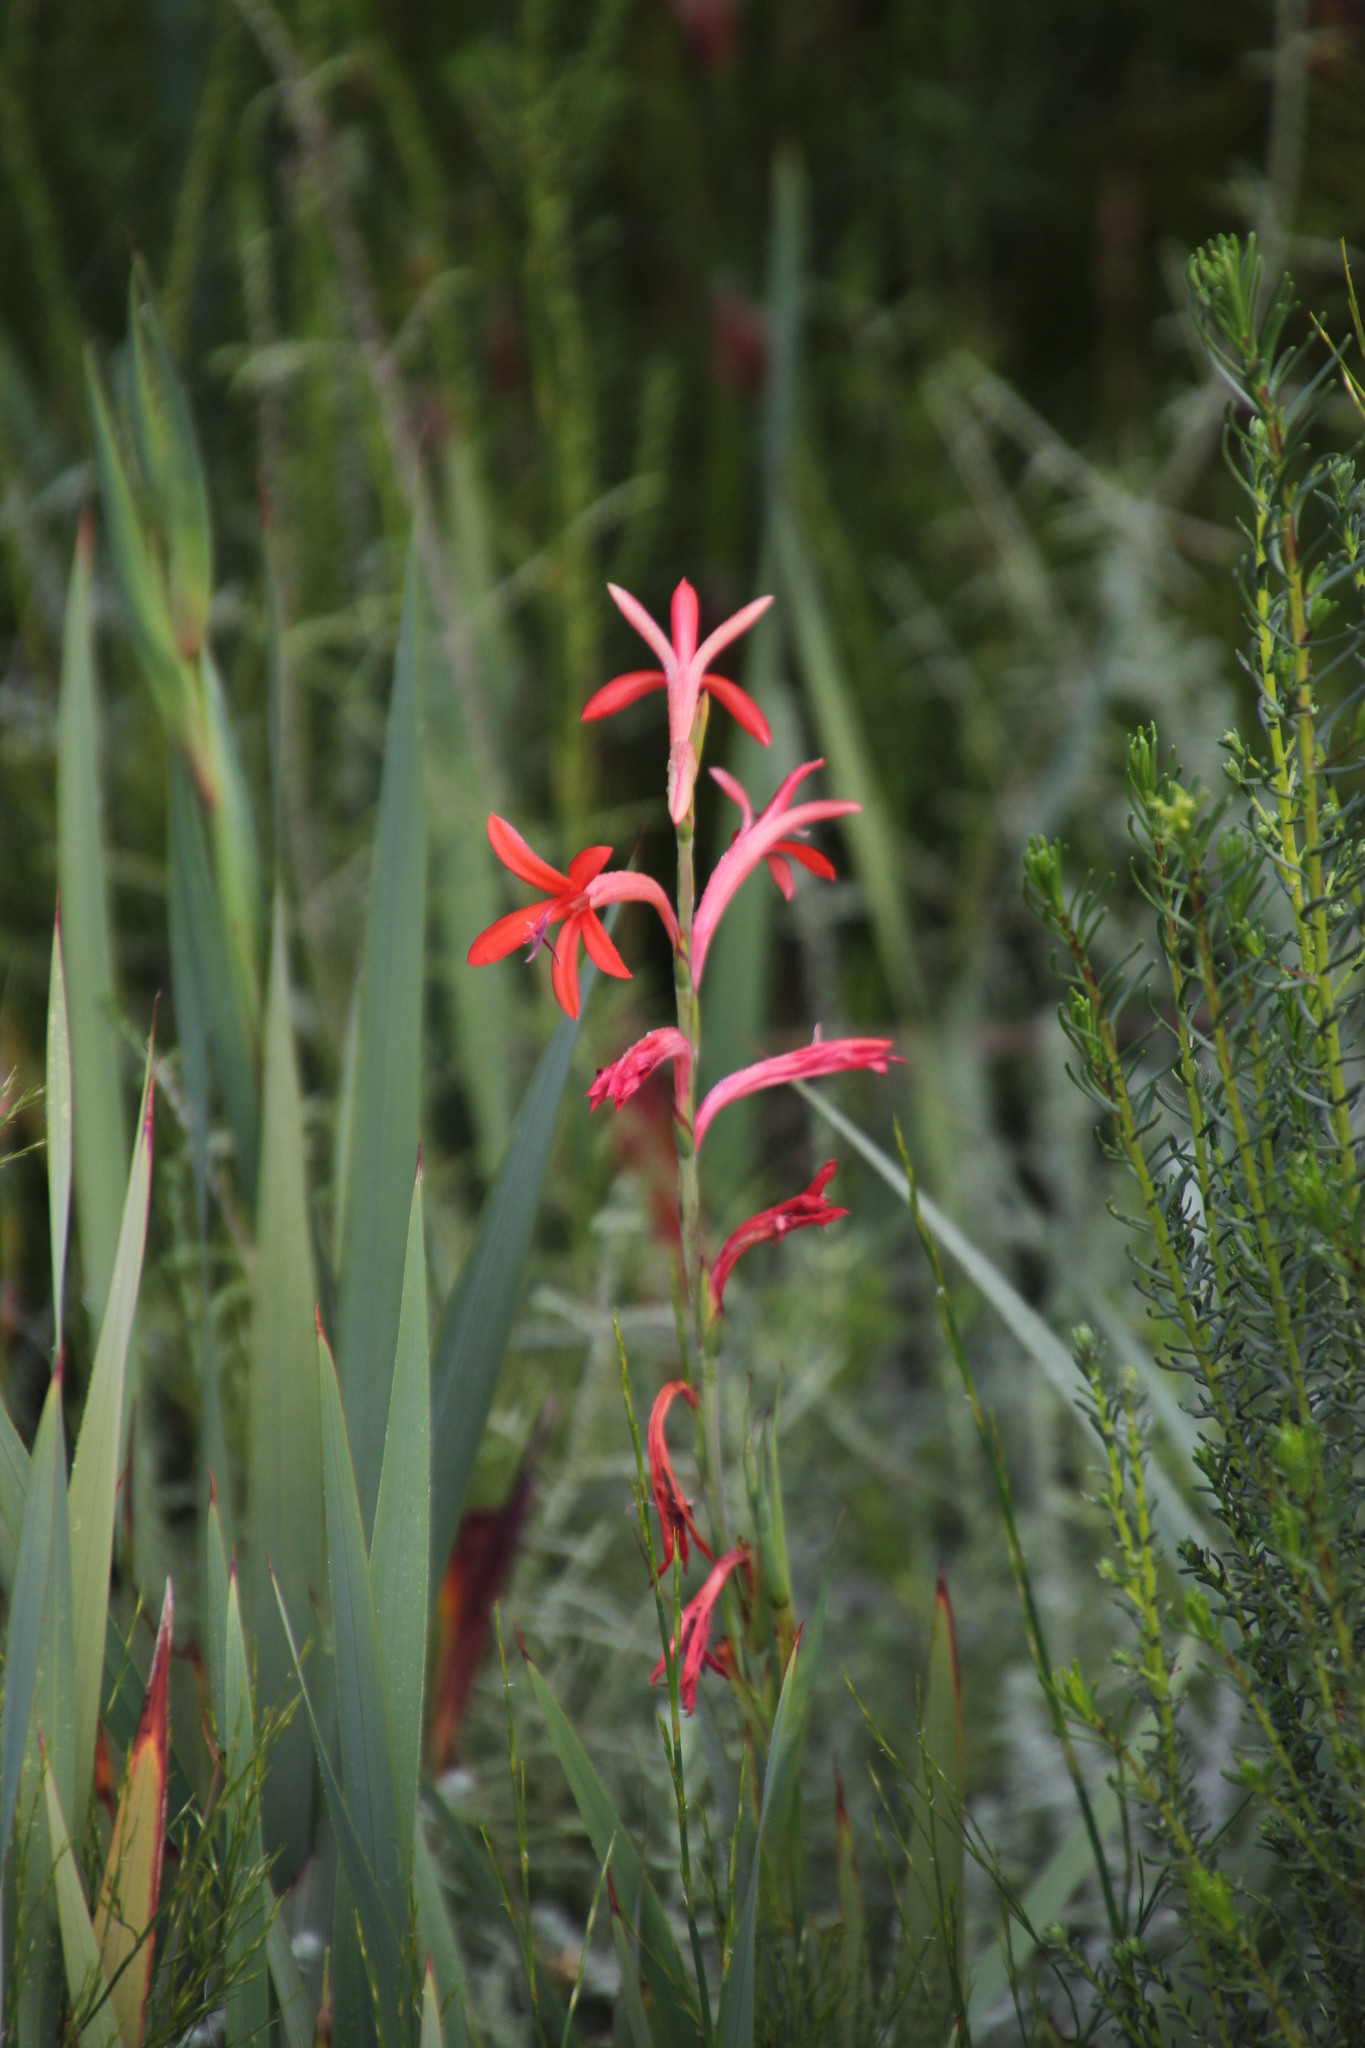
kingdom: Plantae
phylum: Tracheophyta
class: Liliopsida
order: Asparagales
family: Iridaceae
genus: Watsonia
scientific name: Watsonia angusta
